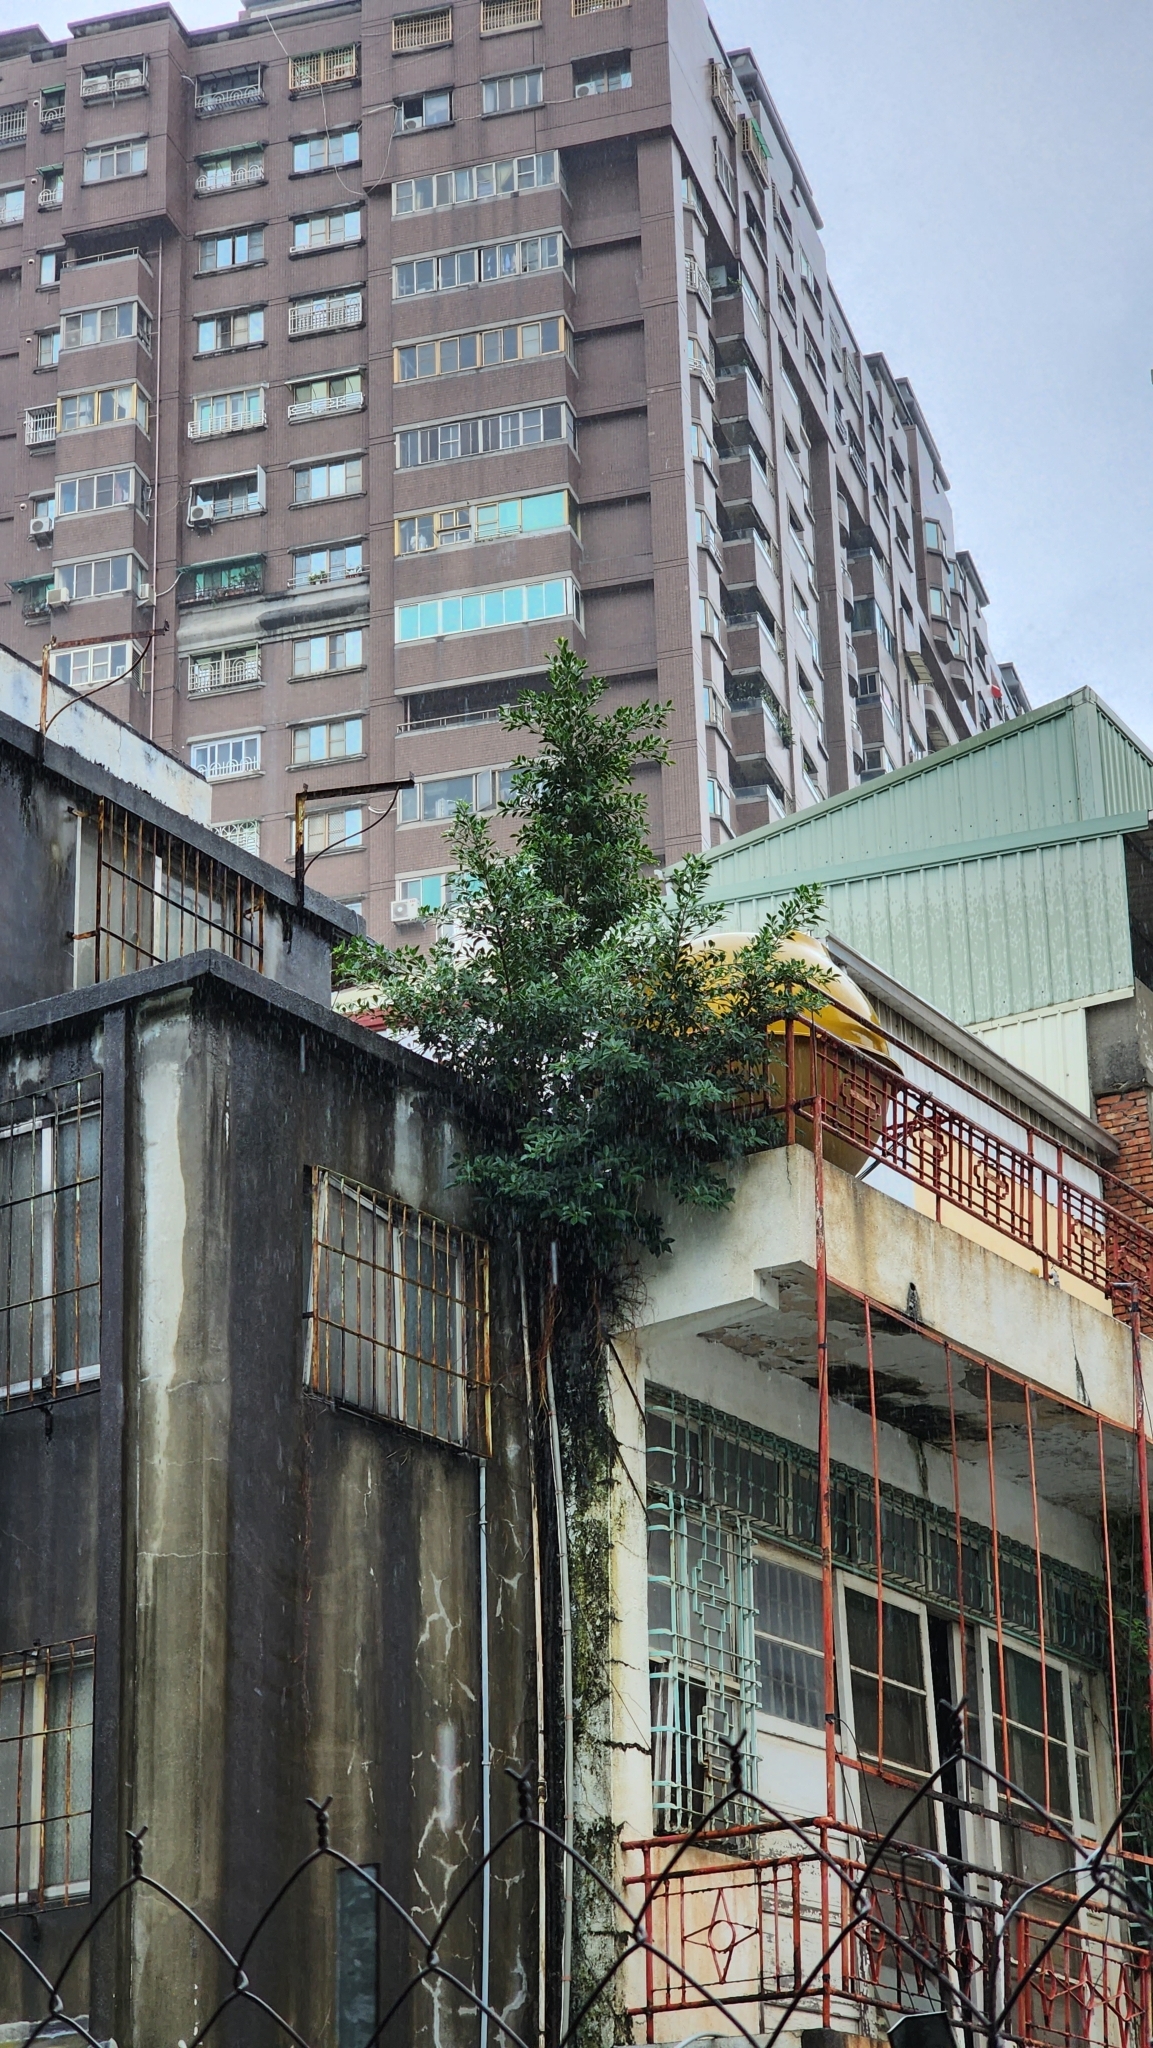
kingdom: Plantae
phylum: Tracheophyta
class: Magnoliopsida
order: Rosales
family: Moraceae
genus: Ficus
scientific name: Ficus microcarpa
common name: Chinese banyan
